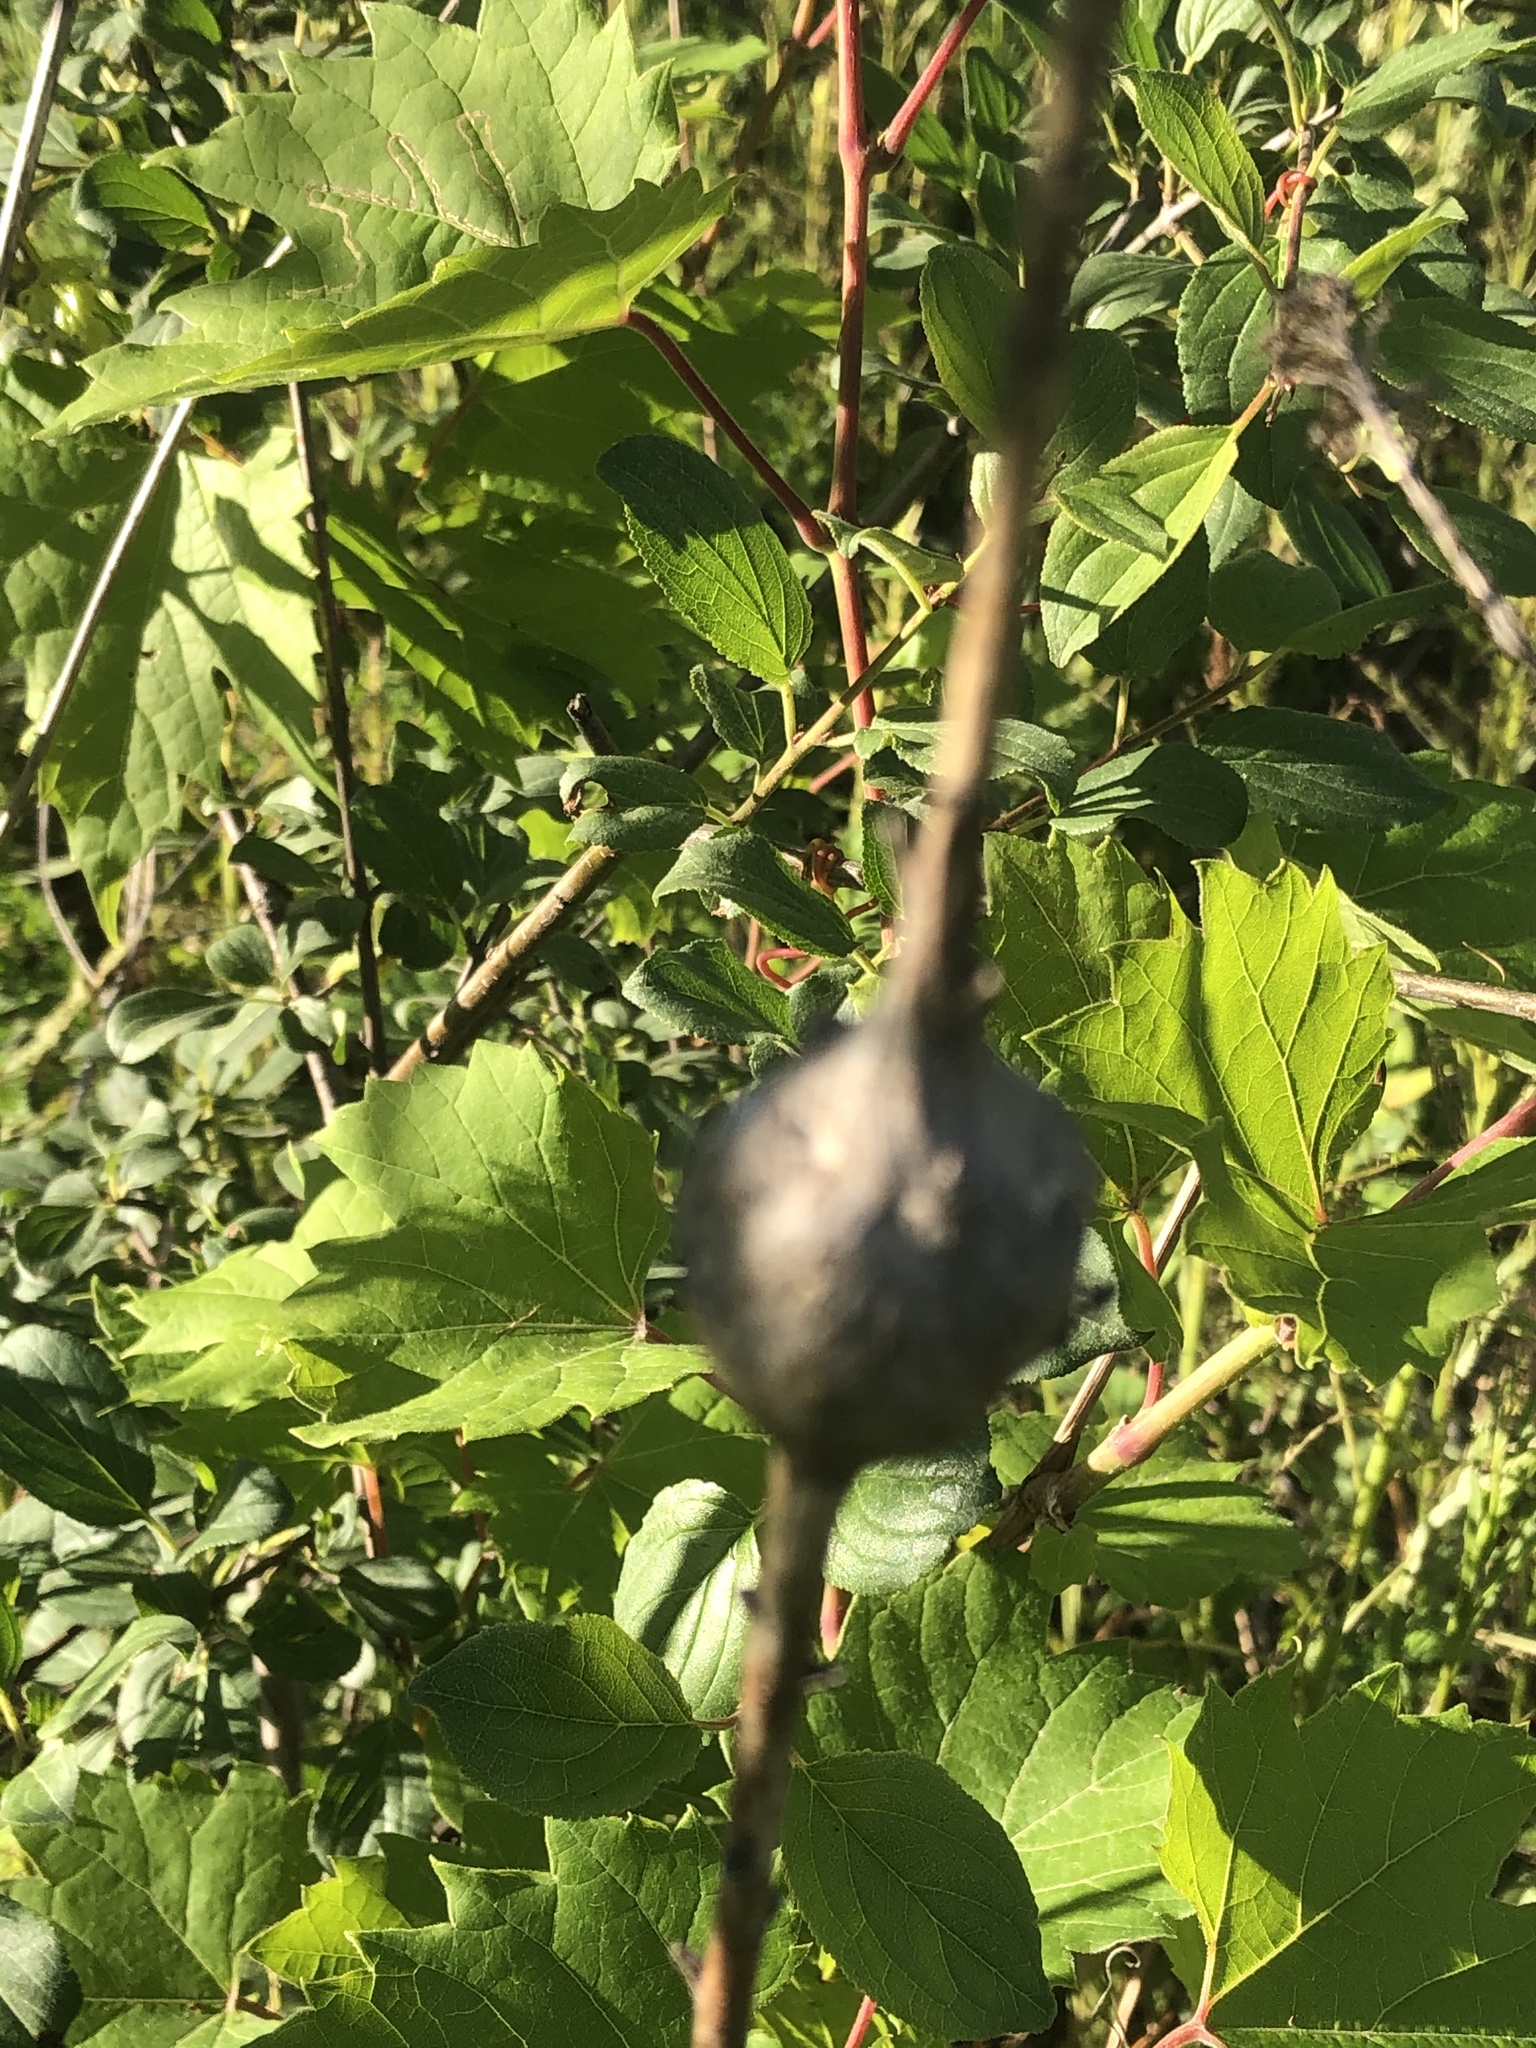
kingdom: Animalia
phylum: Arthropoda
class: Insecta
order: Diptera
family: Tephritidae
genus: Eurosta
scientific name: Eurosta solidaginis
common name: Goldenrod gall fly
